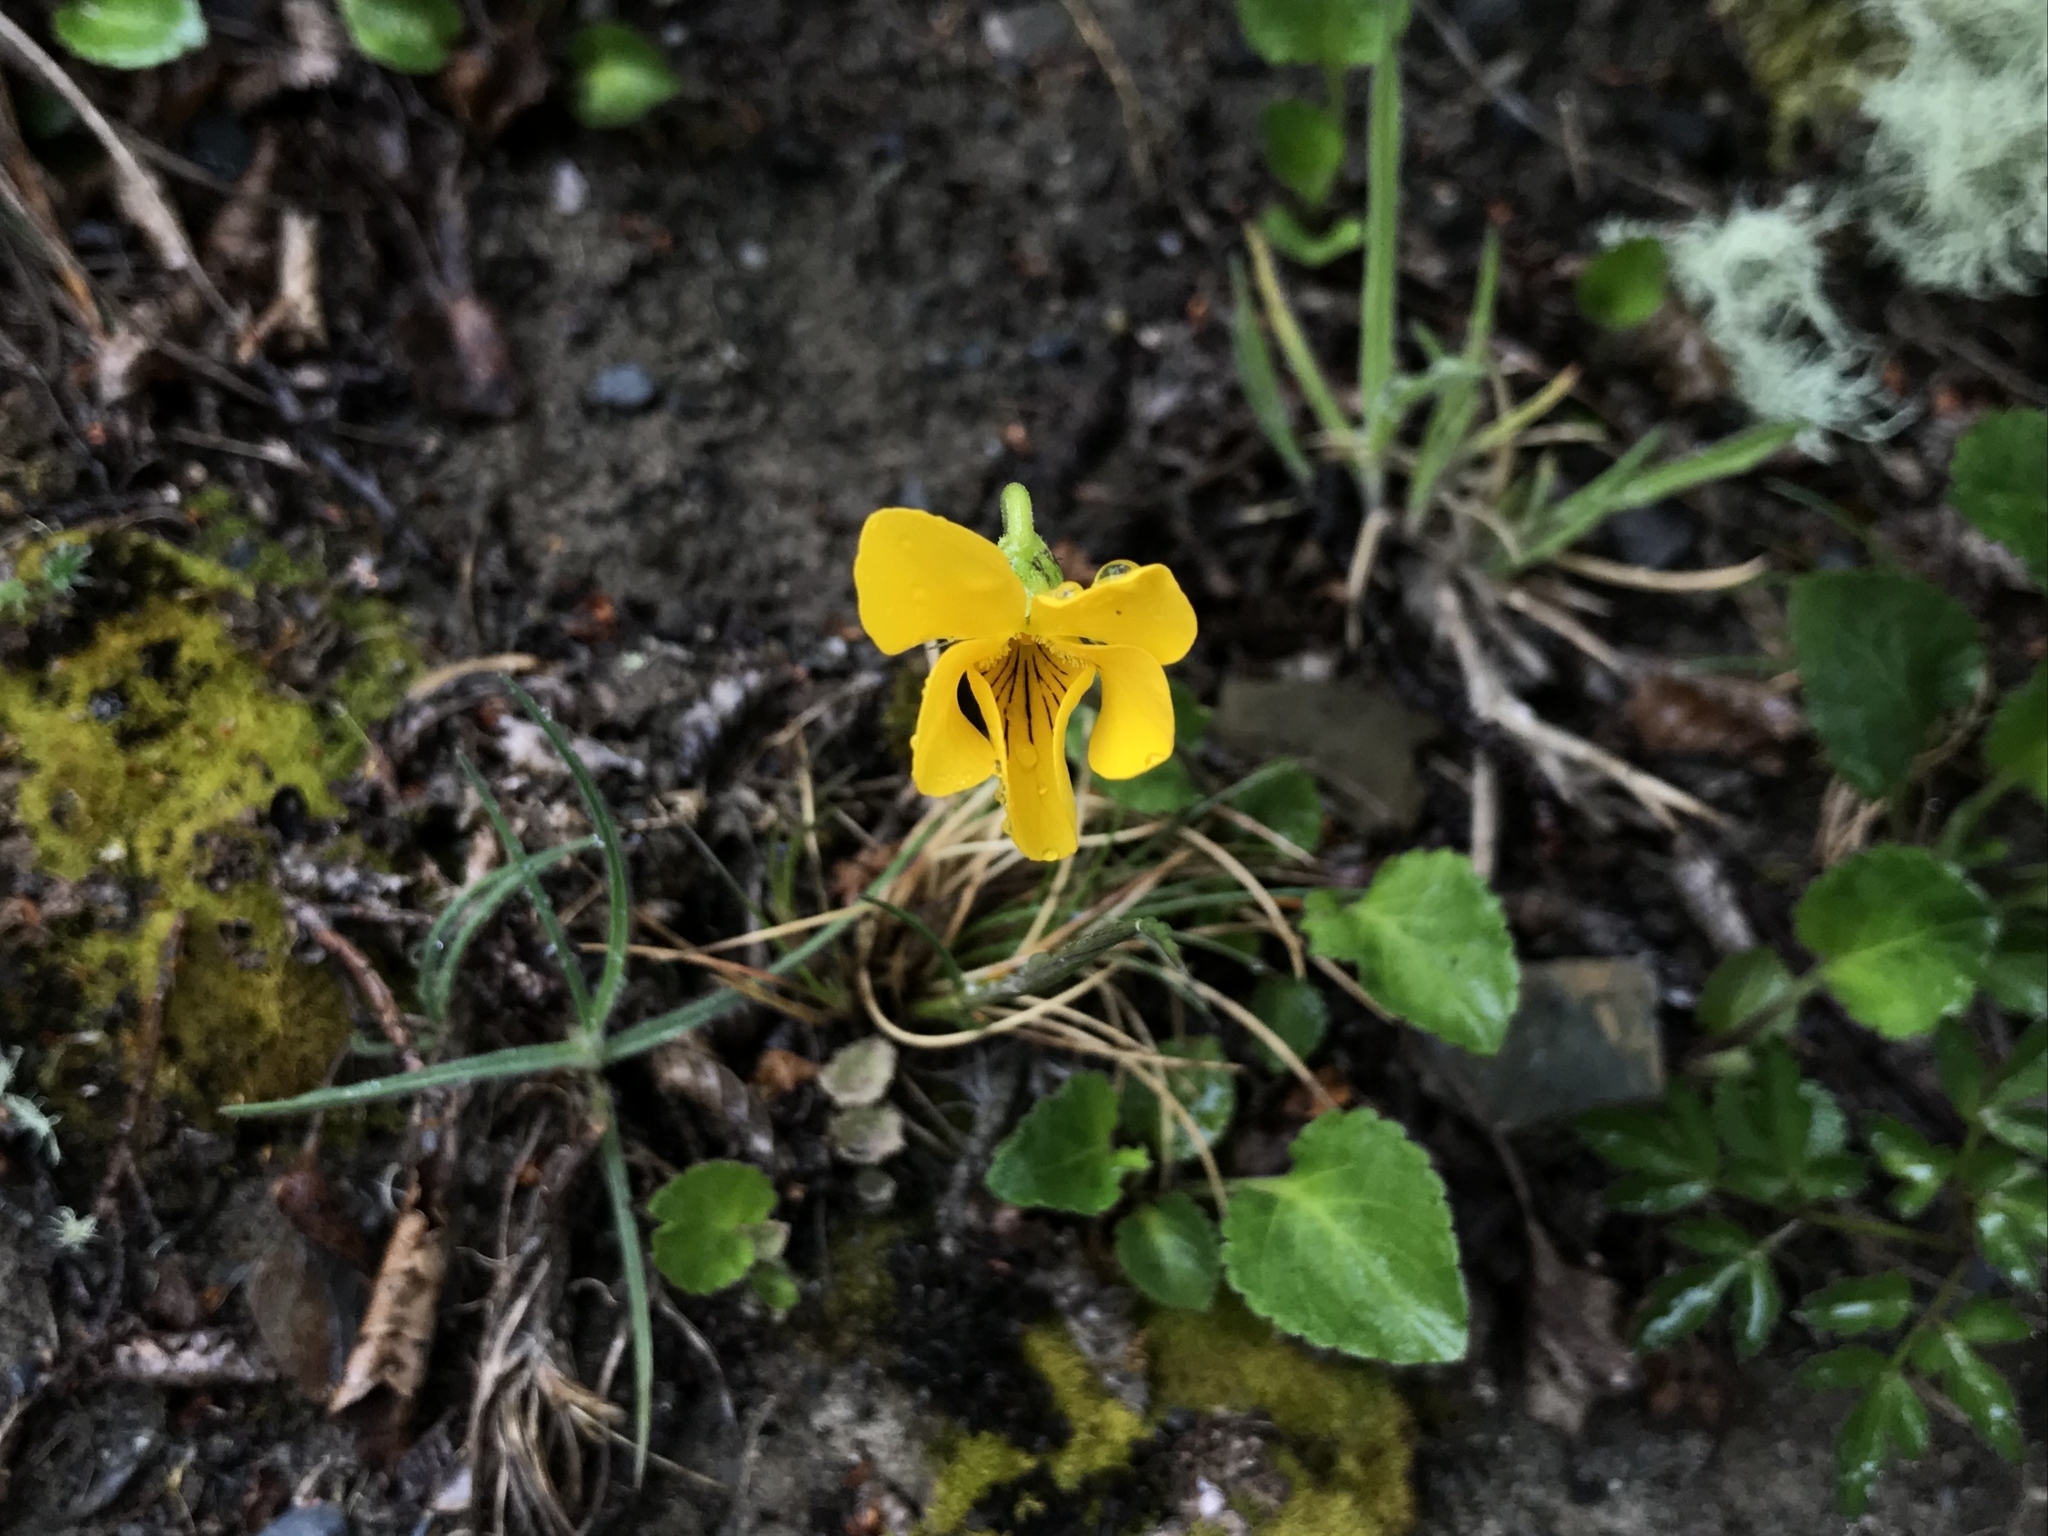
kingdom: Plantae
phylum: Tracheophyta
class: Magnoliopsida
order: Malpighiales
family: Violaceae
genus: Viola
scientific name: Viola reichei
